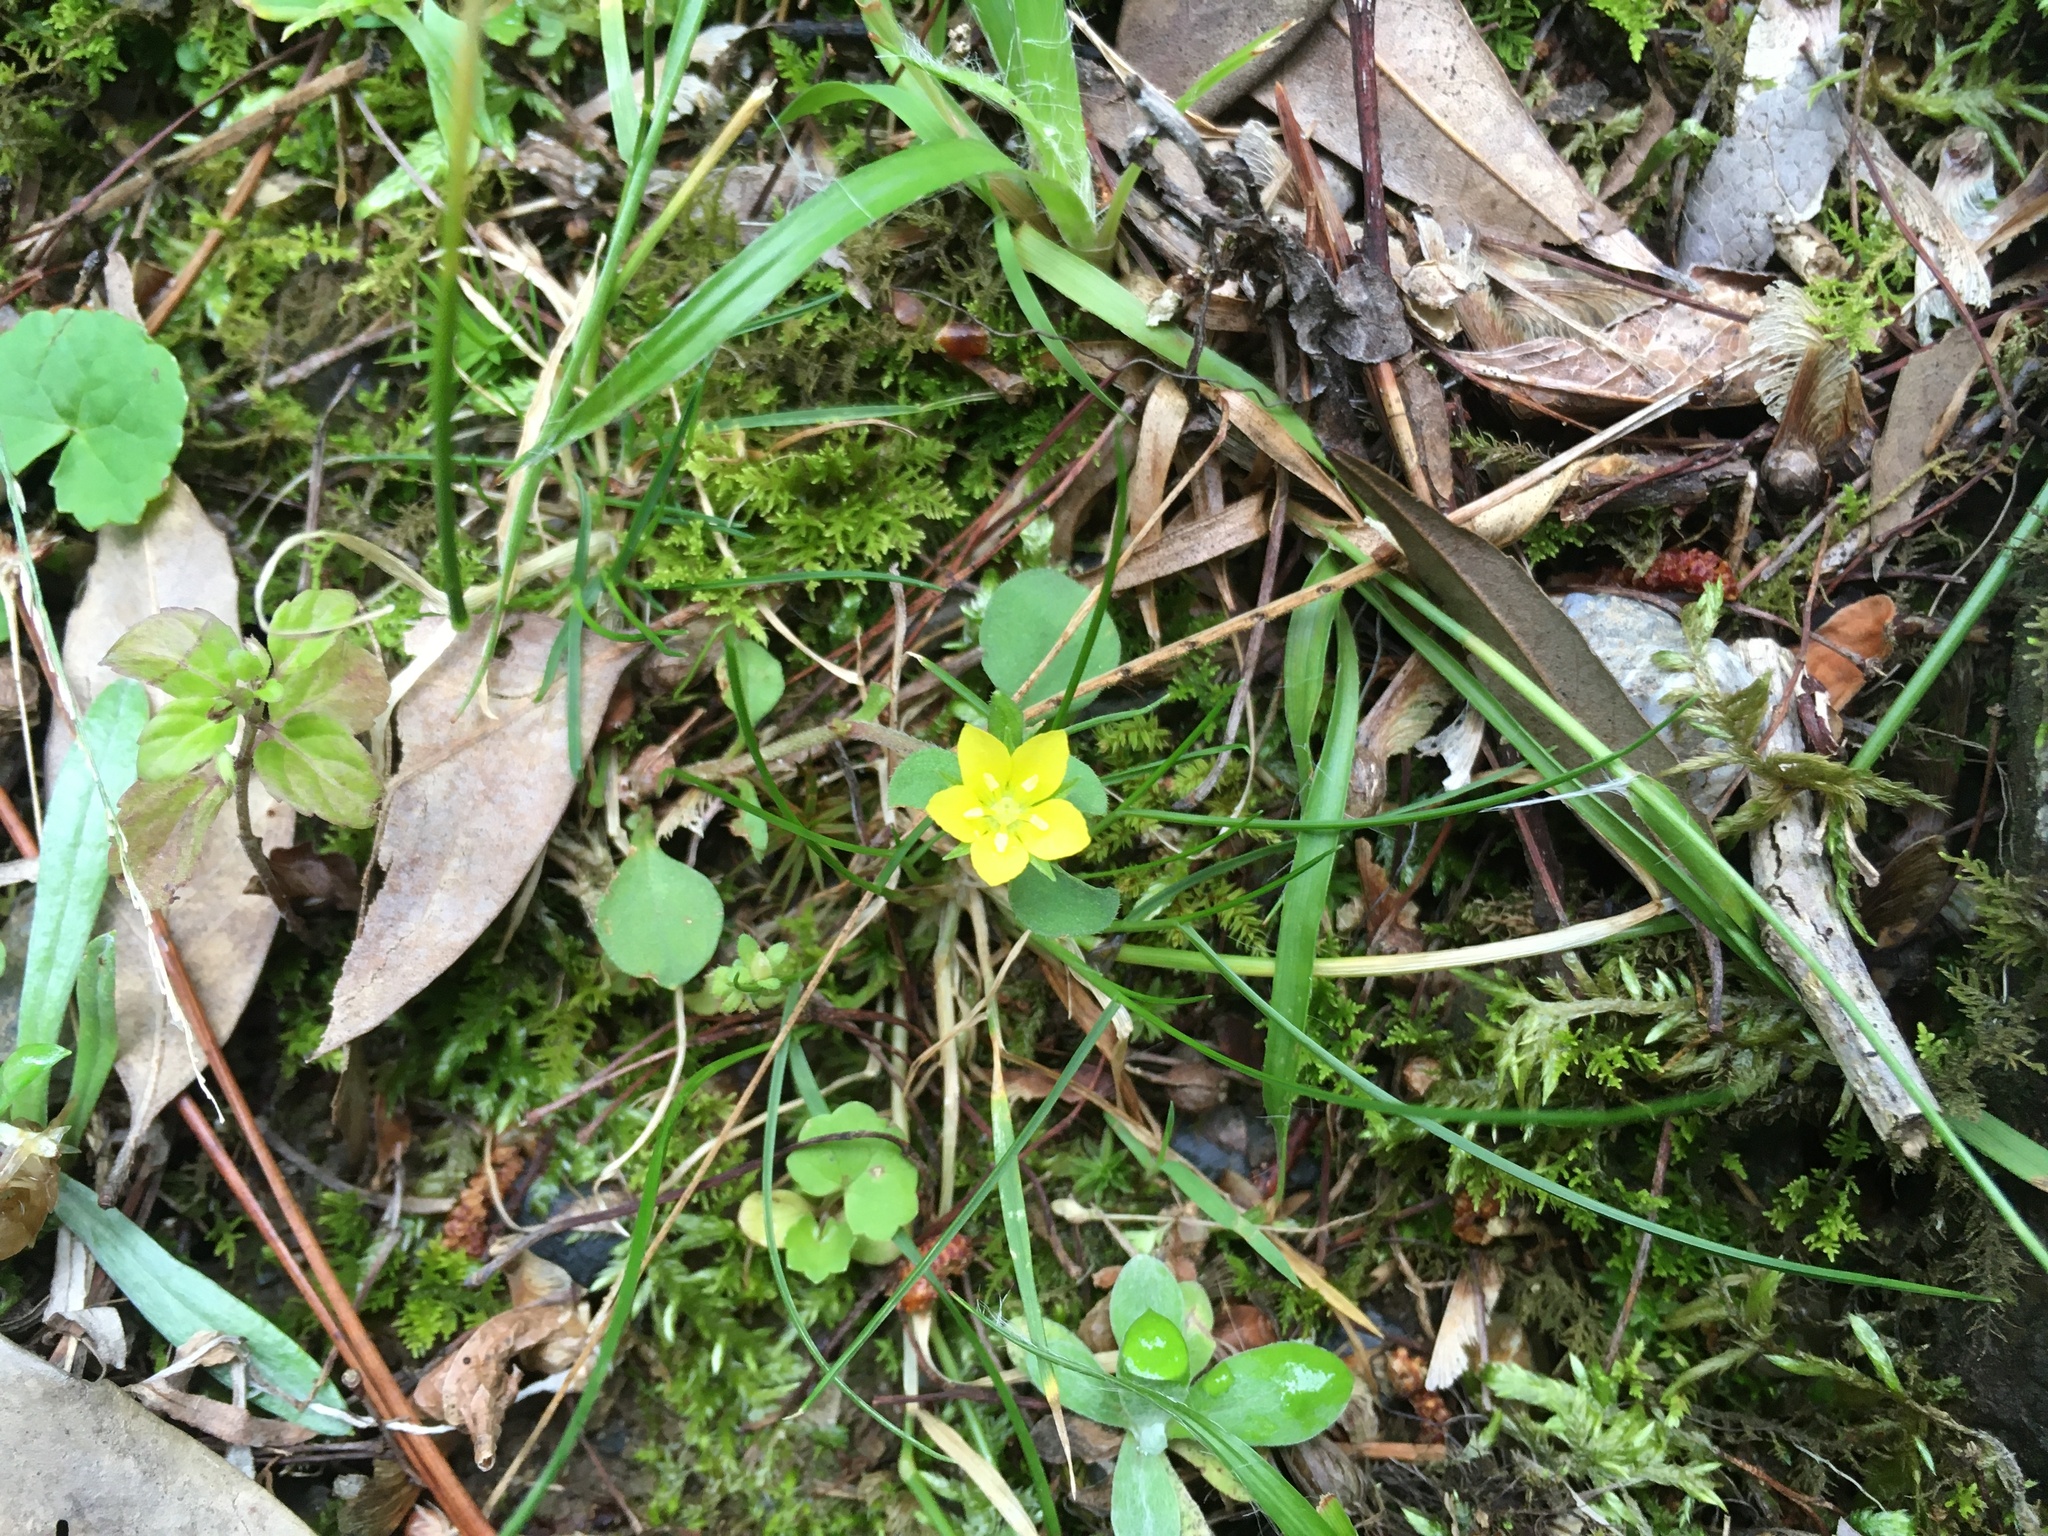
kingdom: Plantae
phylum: Tracheophyta
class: Magnoliopsida
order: Ericales
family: Primulaceae
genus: Lysimachia
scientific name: Lysimachia japonica
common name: Japanese yellow loosestrife
